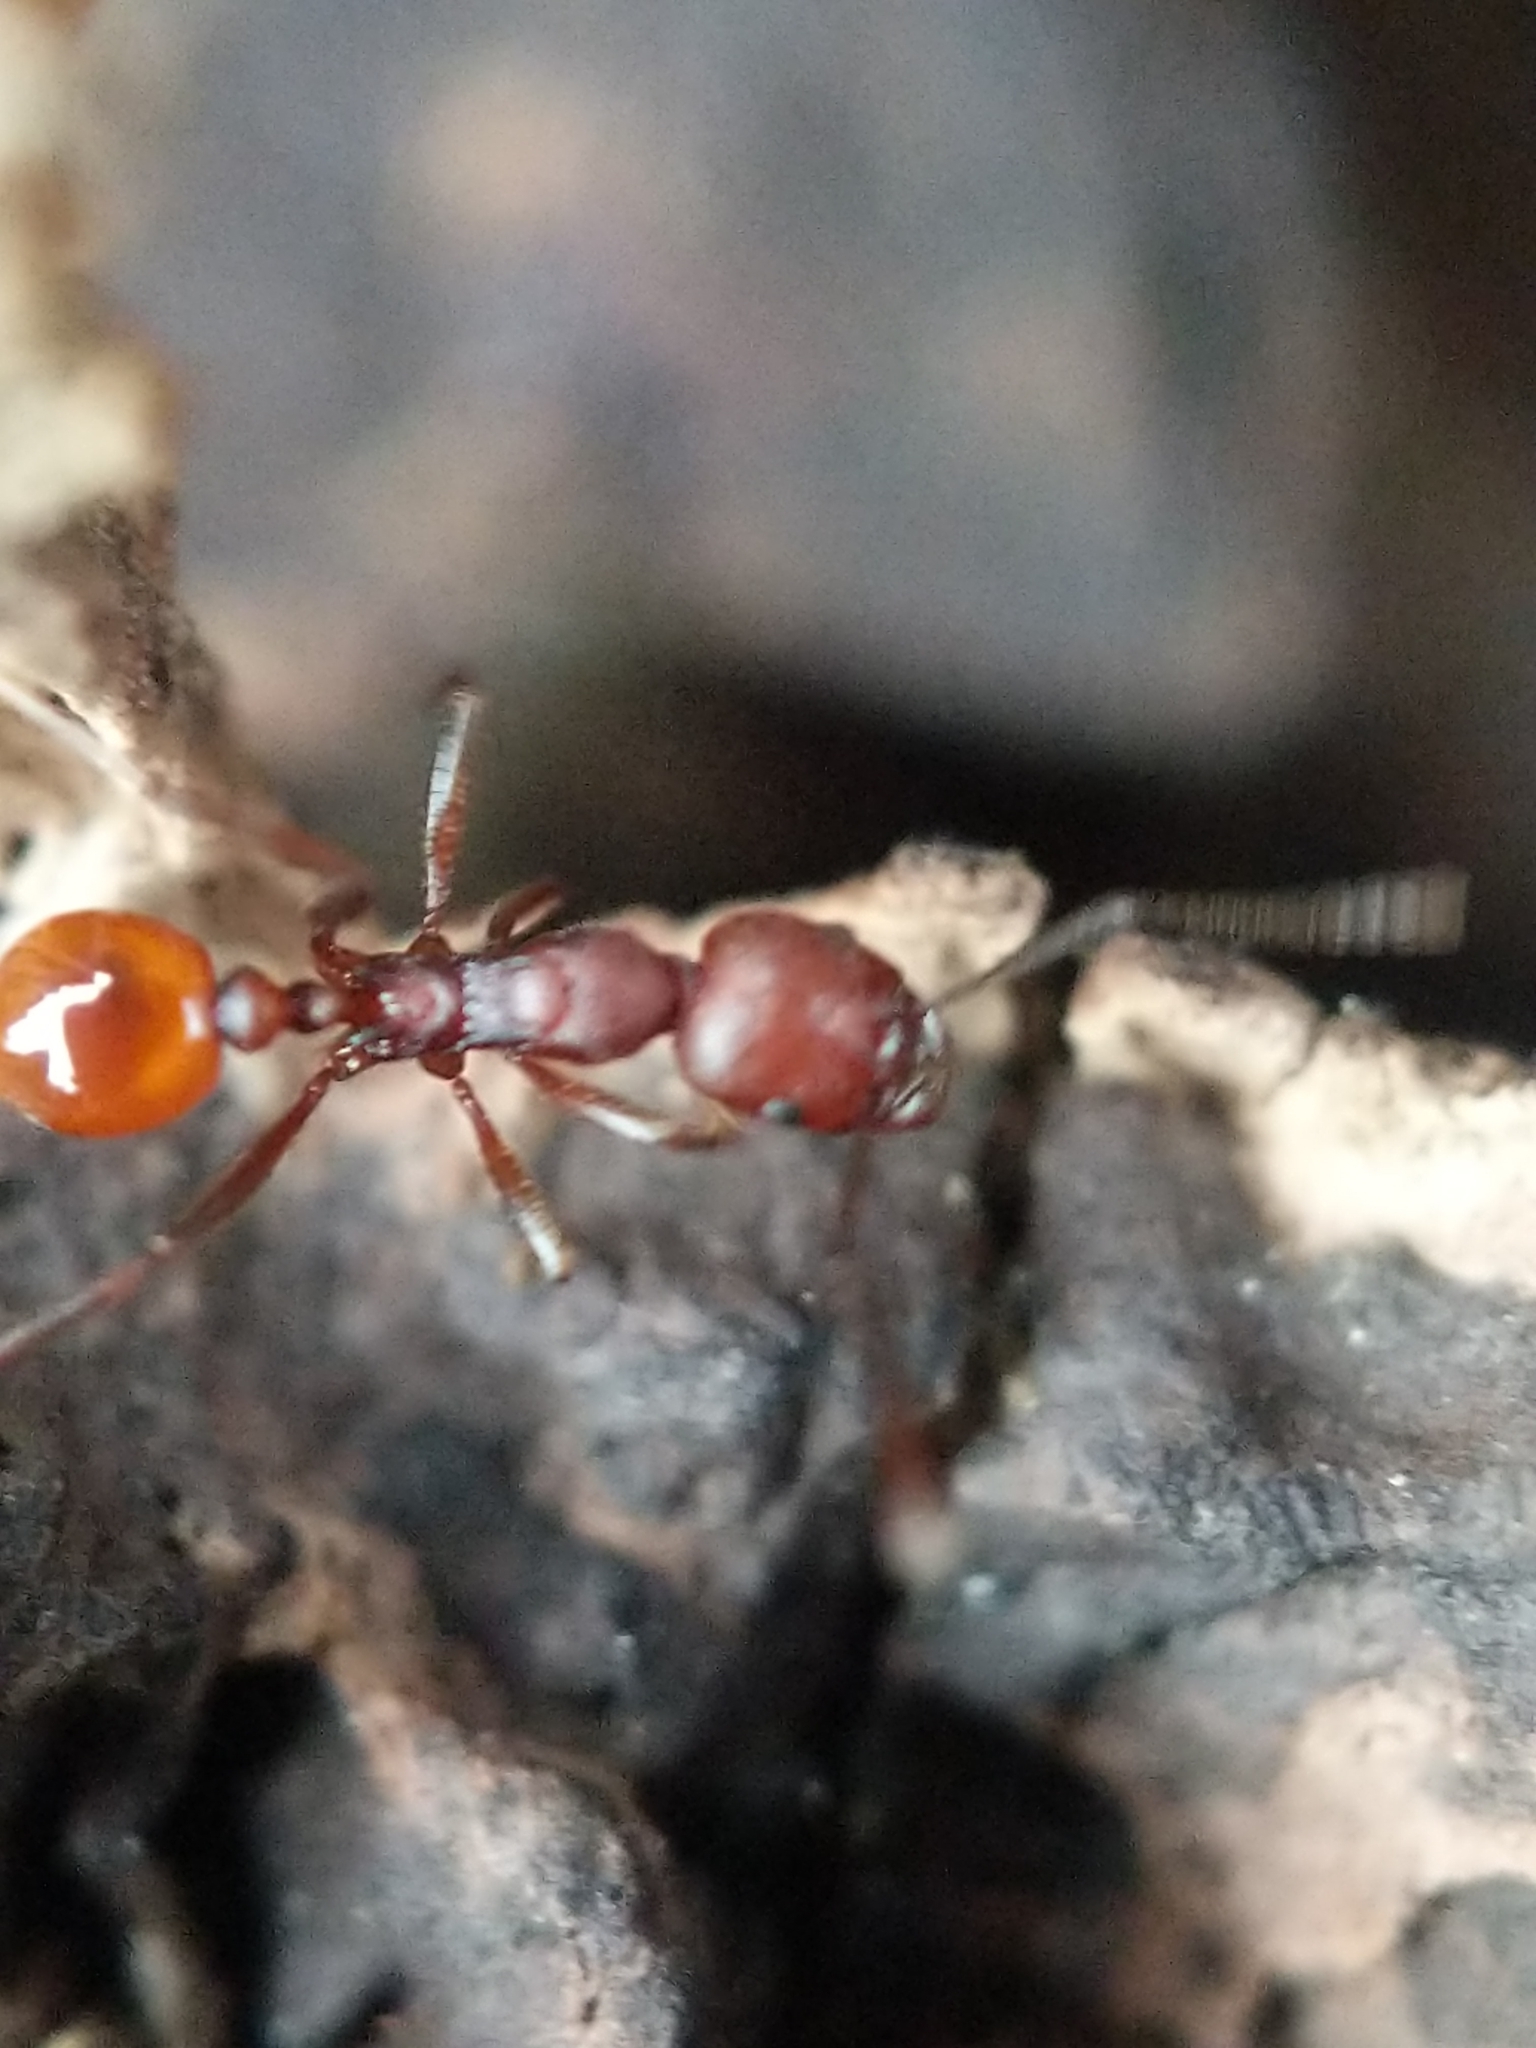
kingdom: Animalia
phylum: Arthropoda
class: Insecta
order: Hymenoptera
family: Formicidae
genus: Aphaenogaster
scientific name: Aphaenogaster tennesseensis
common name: Tennessee thread-waisted ant
